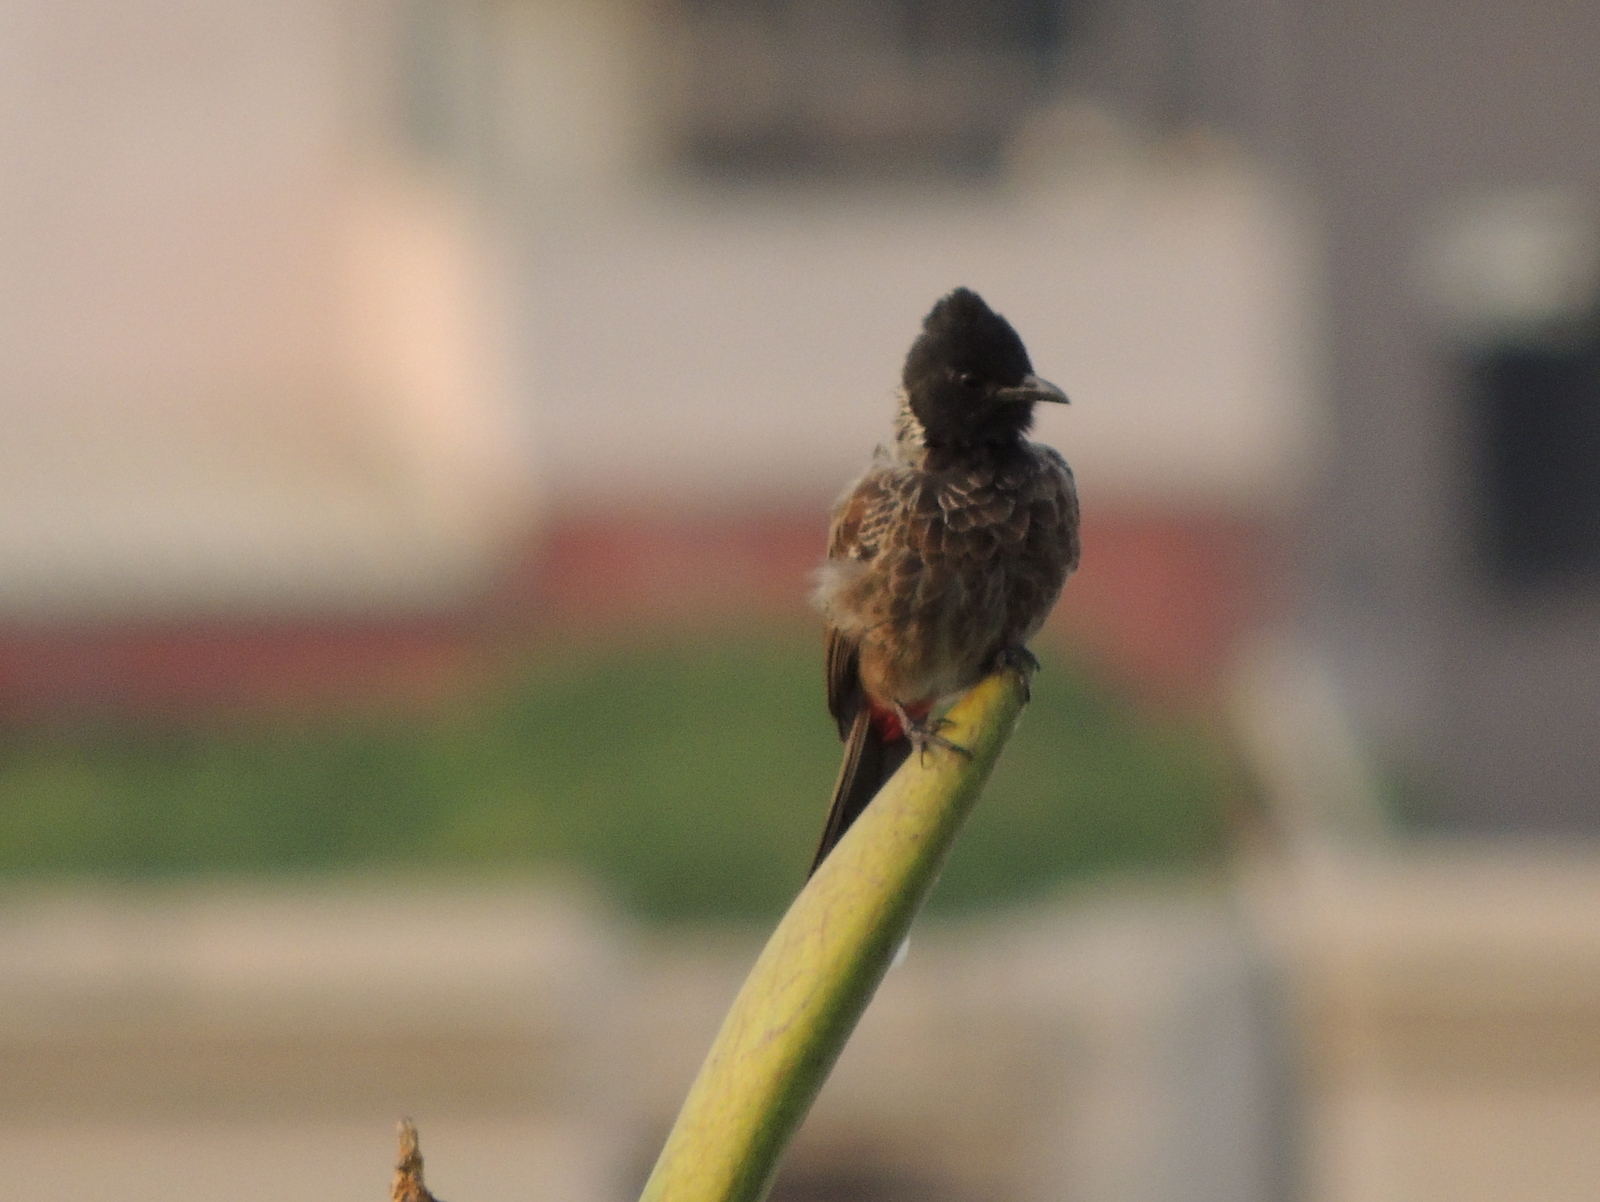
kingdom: Animalia
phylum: Chordata
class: Aves
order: Passeriformes
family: Pycnonotidae
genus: Pycnonotus
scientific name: Pycnonotus cafer
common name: Red-vented bulbul
